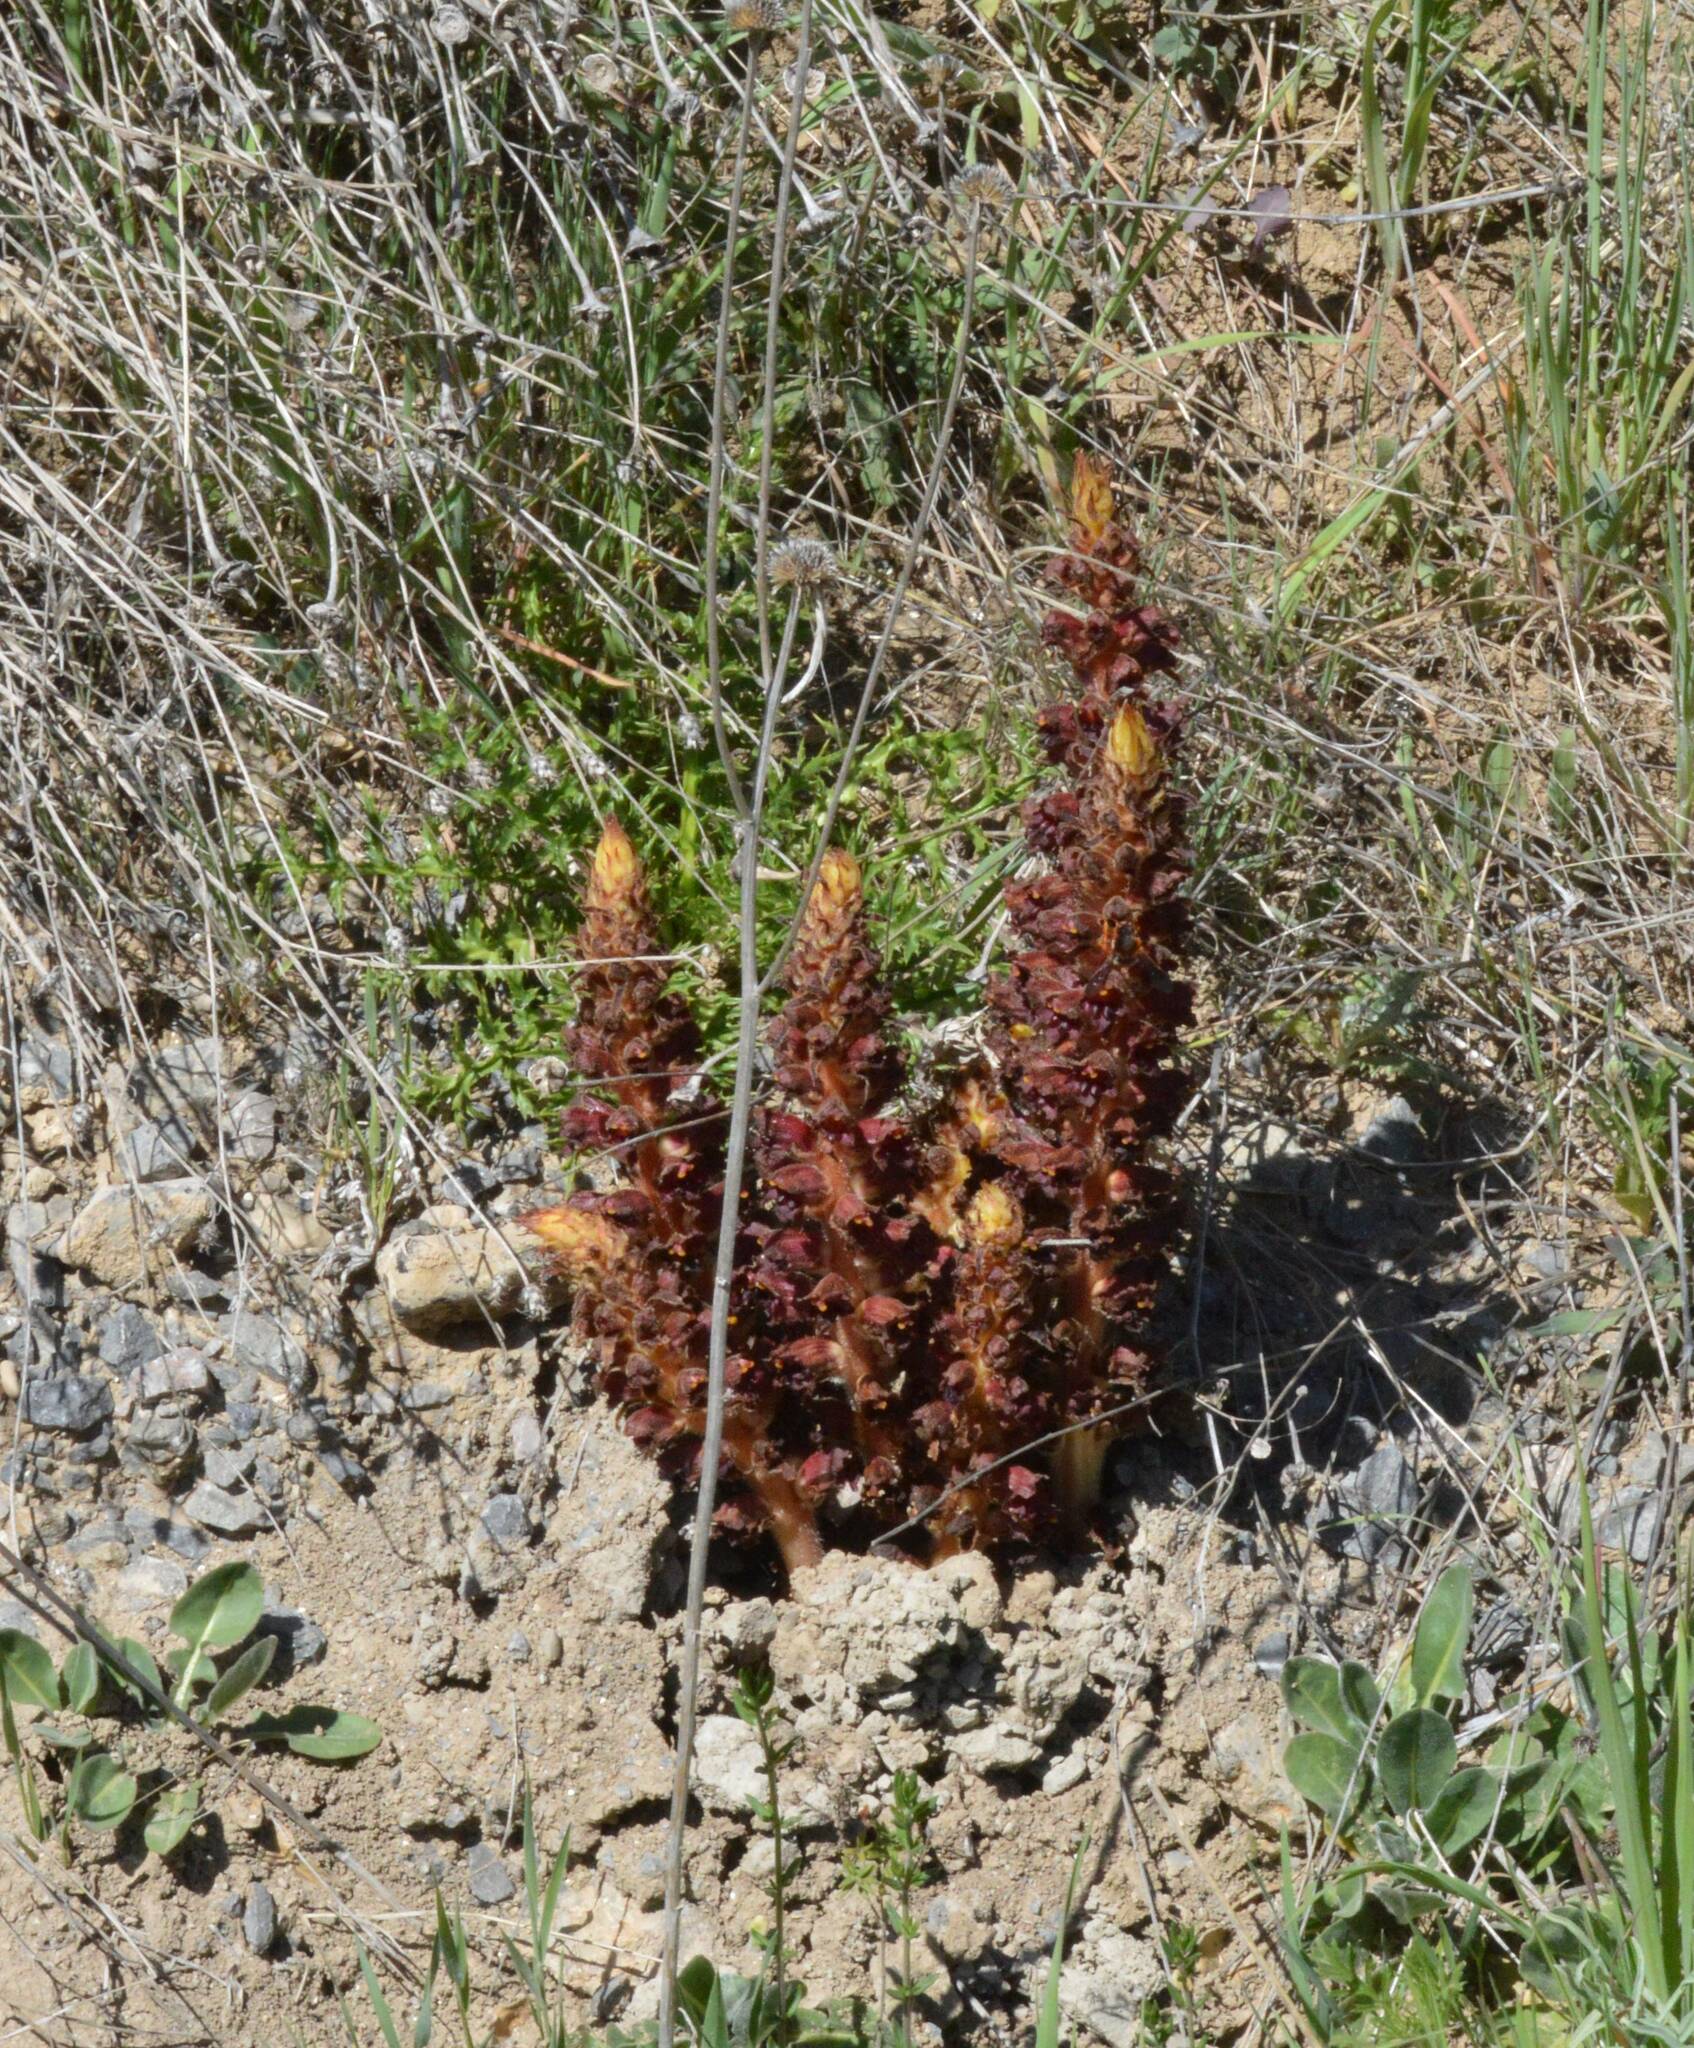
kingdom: Plantae
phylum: Tracheophyta
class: Magnoliopsida
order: Lamiales
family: Orobanchaceae
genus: Orobanche
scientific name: Orobanche variegata
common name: Variegated broomrape
